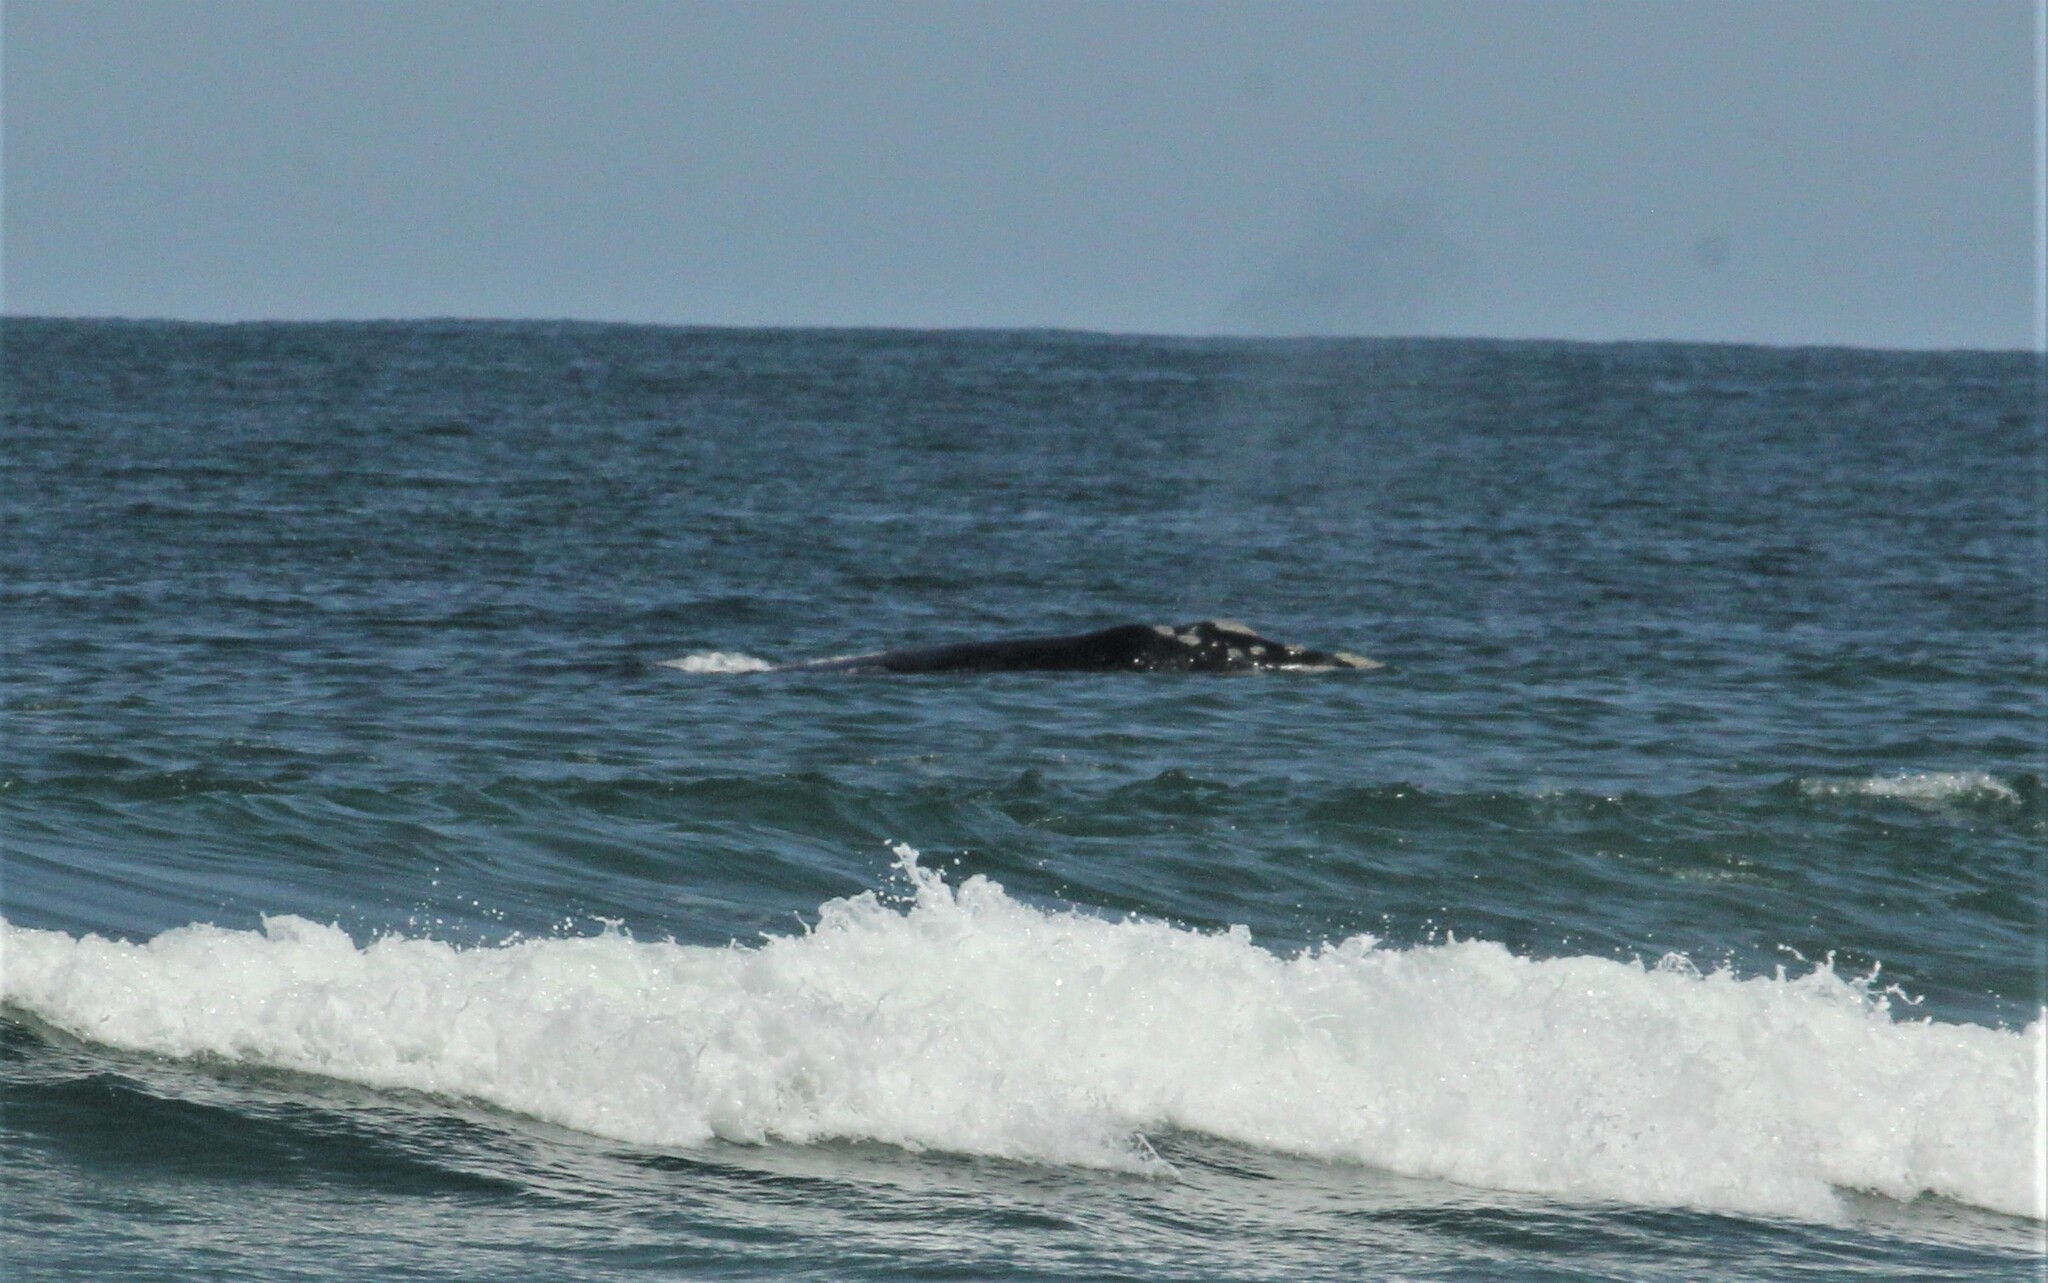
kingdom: Animalia
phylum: Chordata
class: Mammalia
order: Cetacea
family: Balaenidae
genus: Eubalaena
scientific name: Eubalaena australis
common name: Southern right whale
